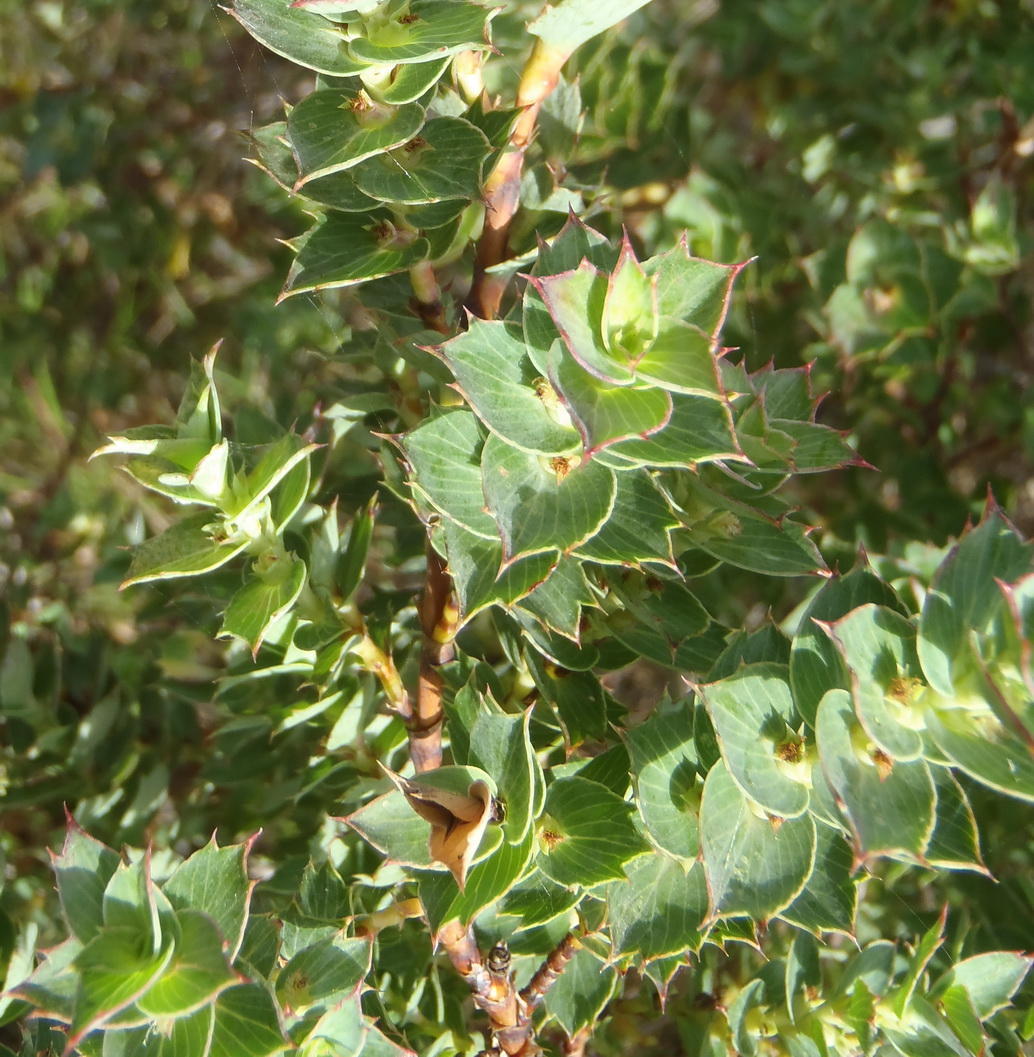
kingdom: Plantae
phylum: Tracheophyta
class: Magnoliopsida
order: Rosales
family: Rosaceae
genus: Cliffortia
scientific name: Cliffortia ilicifolia
